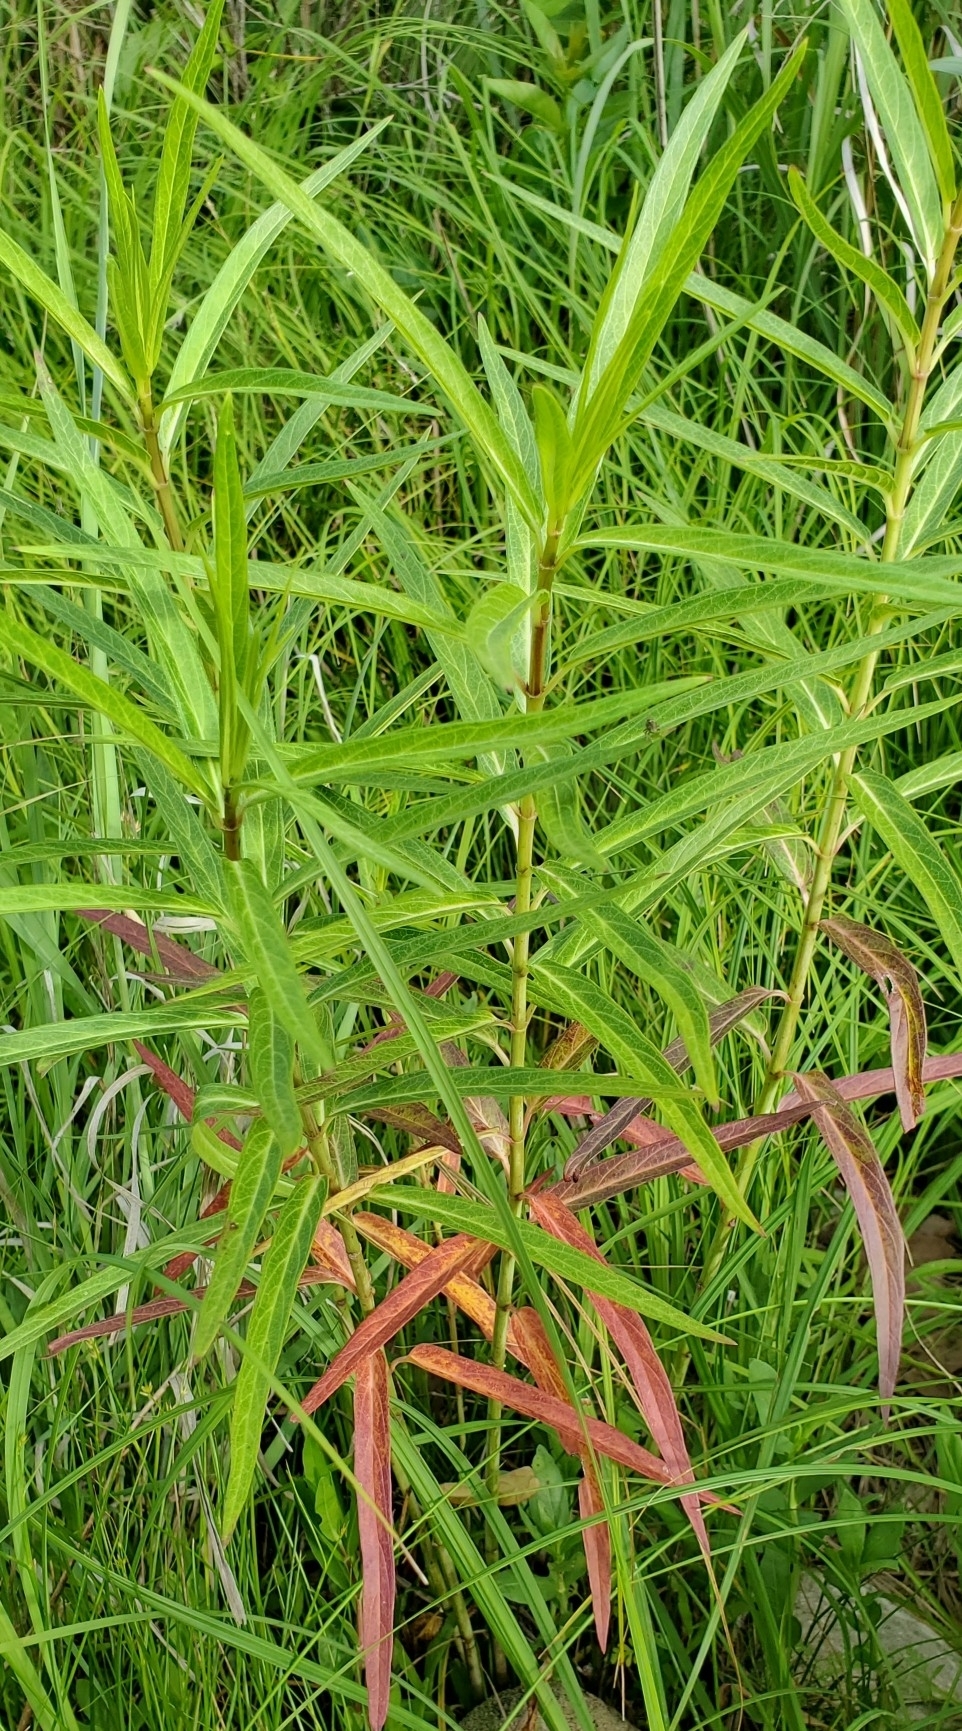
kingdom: Plantae
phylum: Tracheophyta
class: Magnoliopsida
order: Gentianales
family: Apocynaceae
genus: Asclepias
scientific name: Asclepias incarnata
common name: Swamp milkweed
